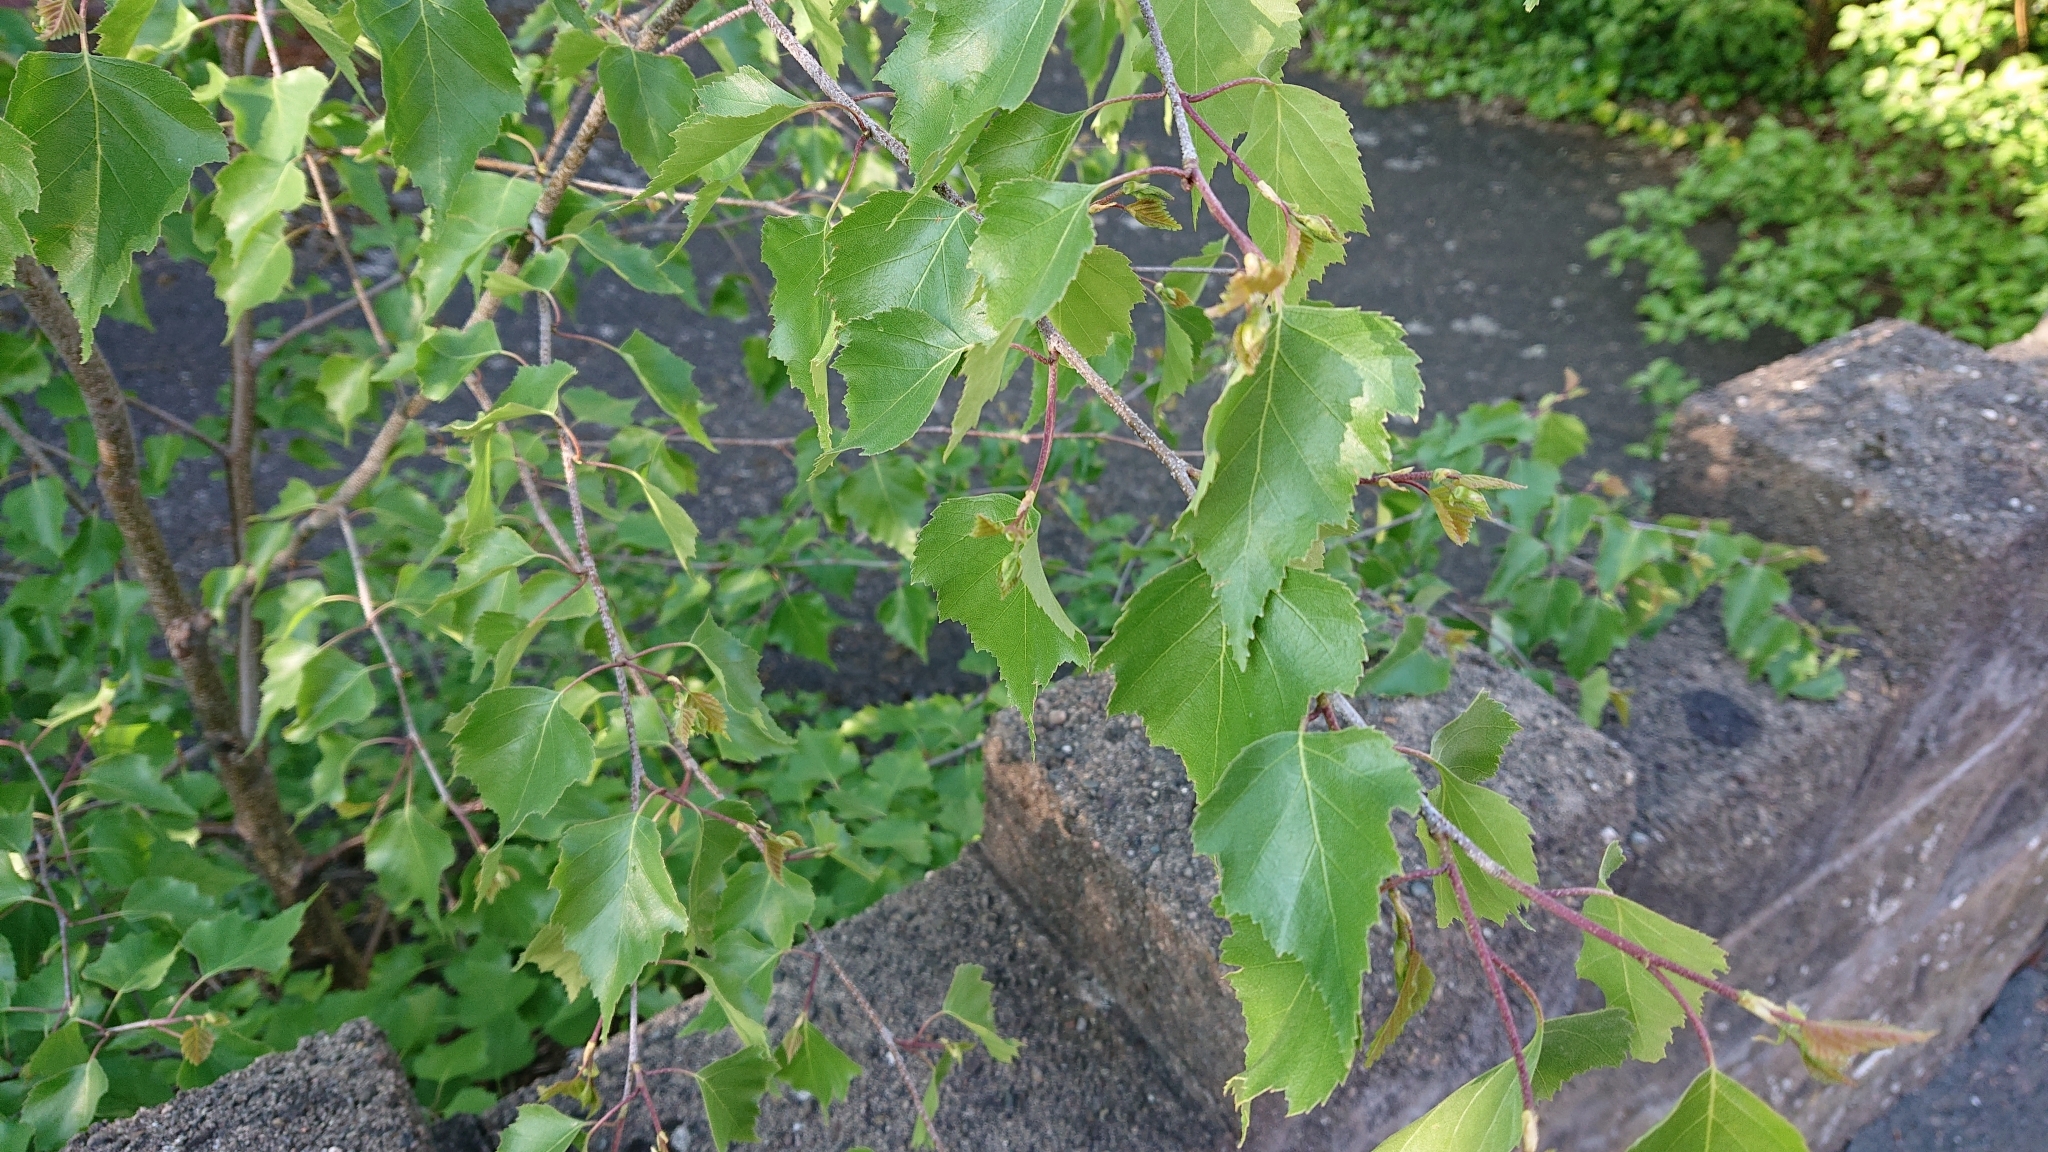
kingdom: Plantae
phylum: Tracheophyta
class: Magnoliopsida
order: Fagales
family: Betulaceae
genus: Betula
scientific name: Betula pendula
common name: Silver birch
